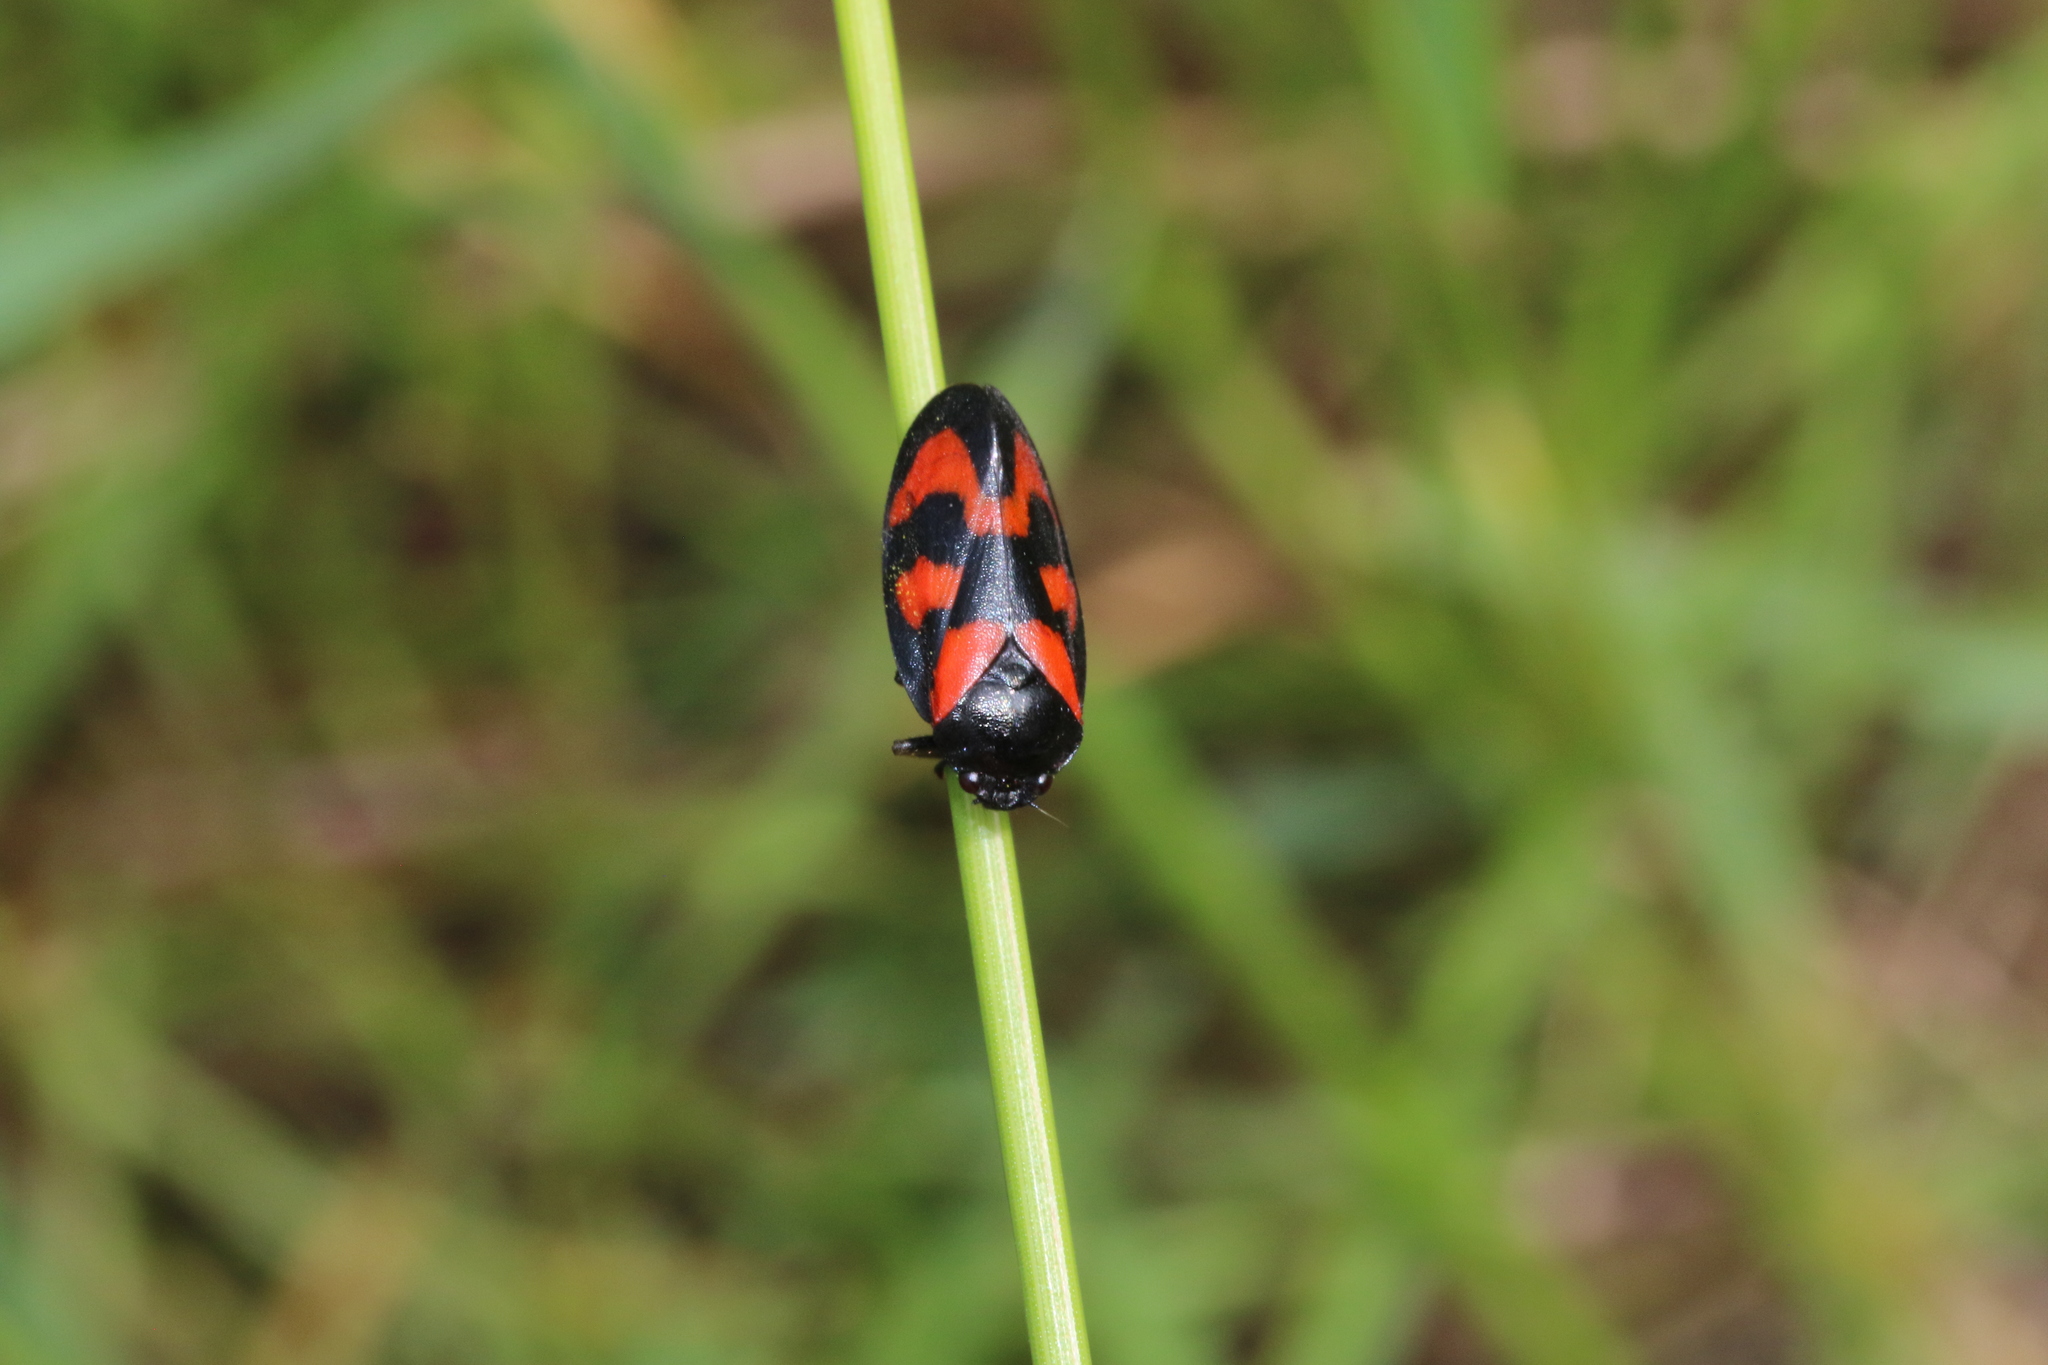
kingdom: Animalia
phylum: Arthropoda
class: Insecta
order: Hemiptera
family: Cercopidae
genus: Cercopis
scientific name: Cercopis vulnerata
